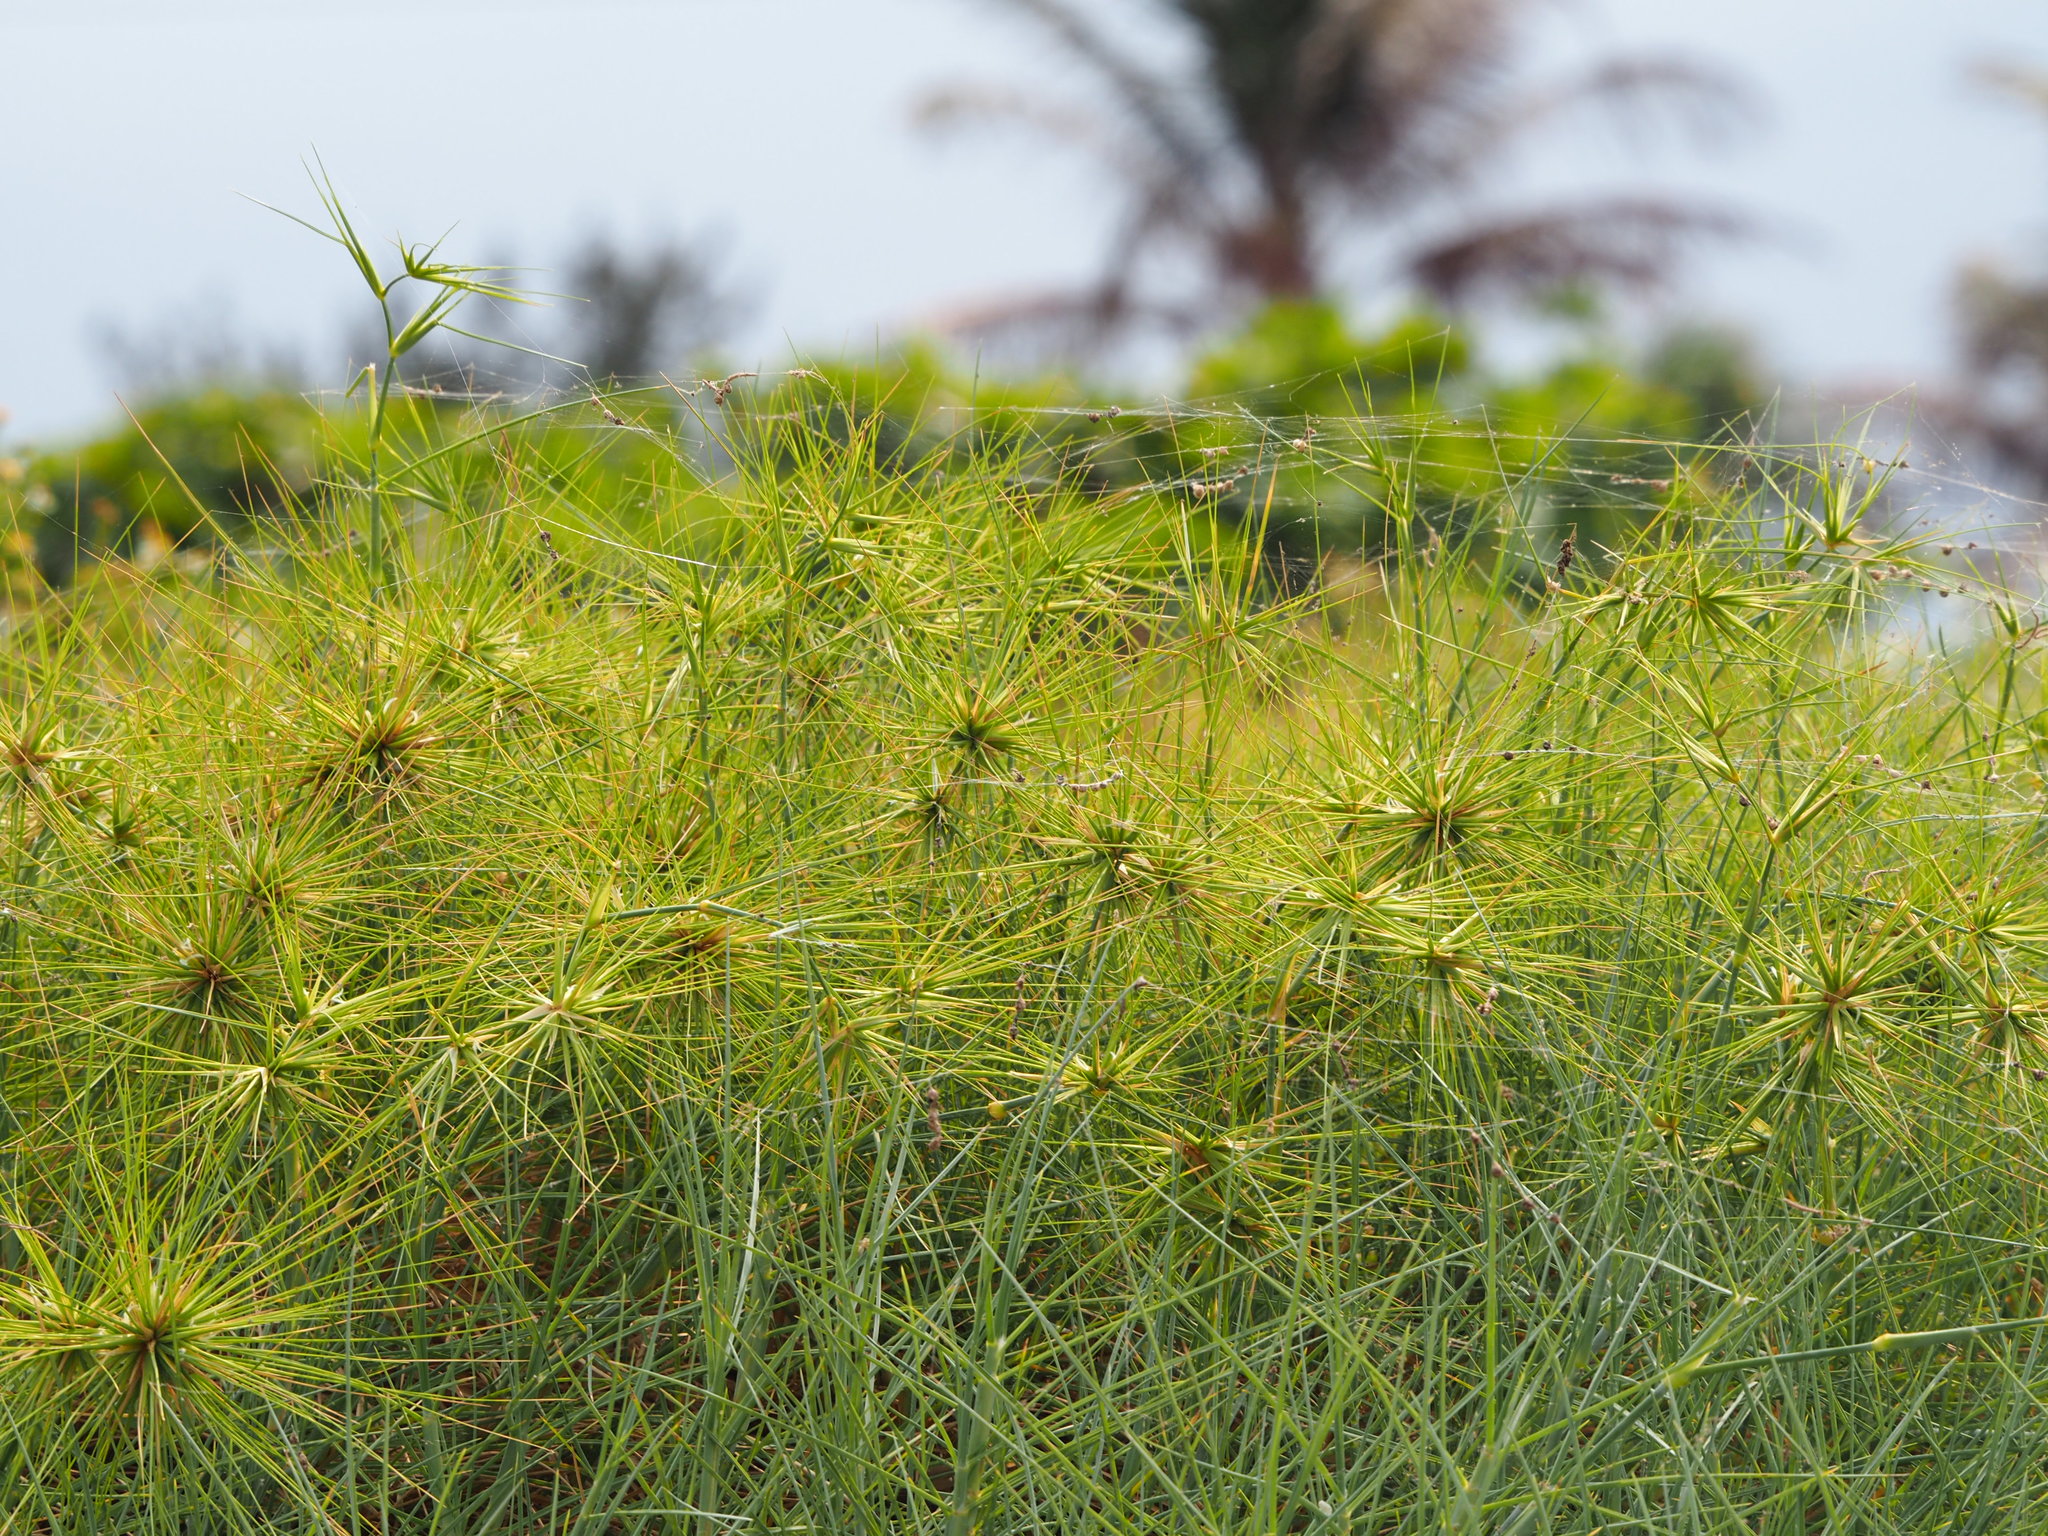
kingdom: Plantae
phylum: Tracheophyta
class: Liliopsida
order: Poales
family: Poaceae
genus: Spinifex
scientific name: Spinifex littoreus
